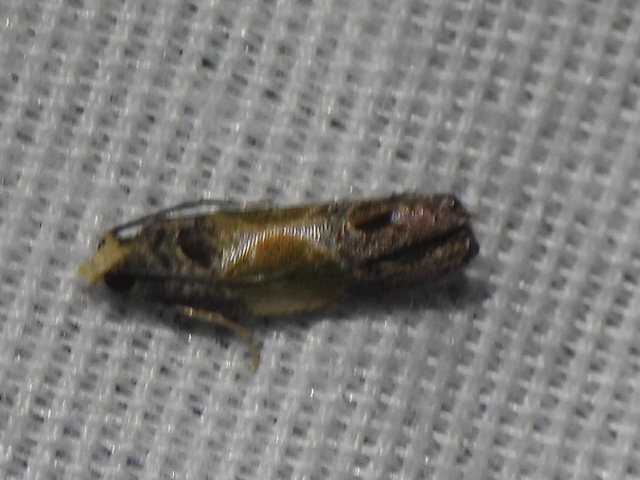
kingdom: Animalia
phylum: Arthropoda
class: Insecta
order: Lepidoptera
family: Tortricidae
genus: Eumarozia
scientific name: Eumarozia malachitana
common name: Sculptured moth
